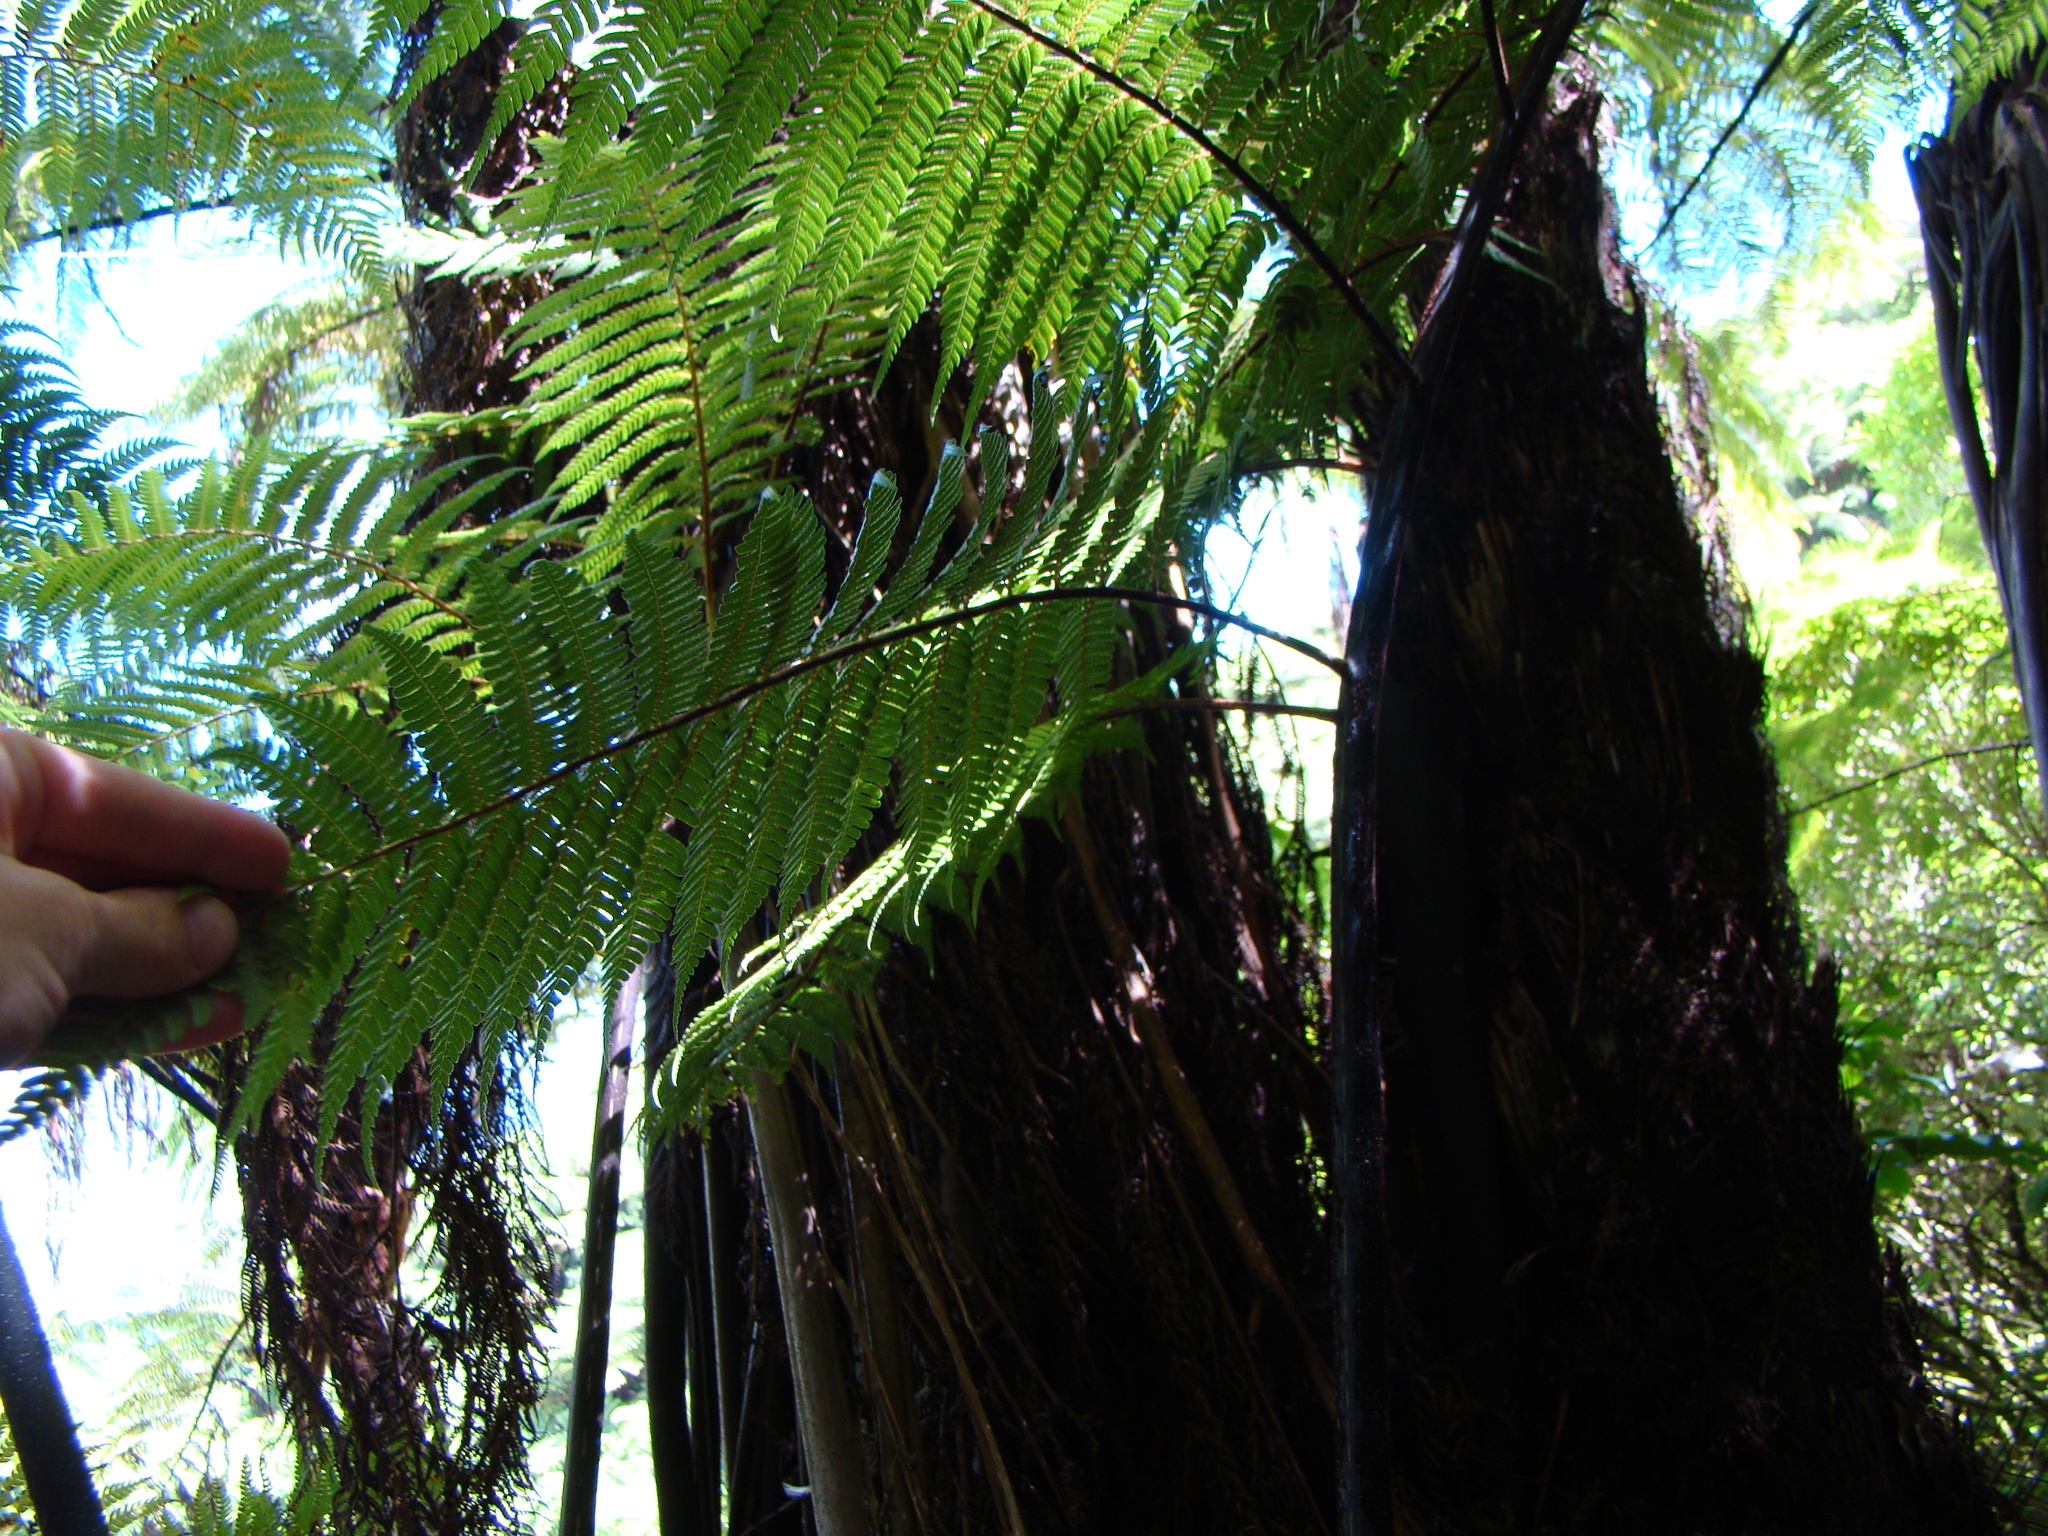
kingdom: Plantae
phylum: Tracheophyta
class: Polypodiopsida
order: Cyatheales
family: Cyatheaceae
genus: Sphaeropteris
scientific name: Sphaeropteris medullaris
